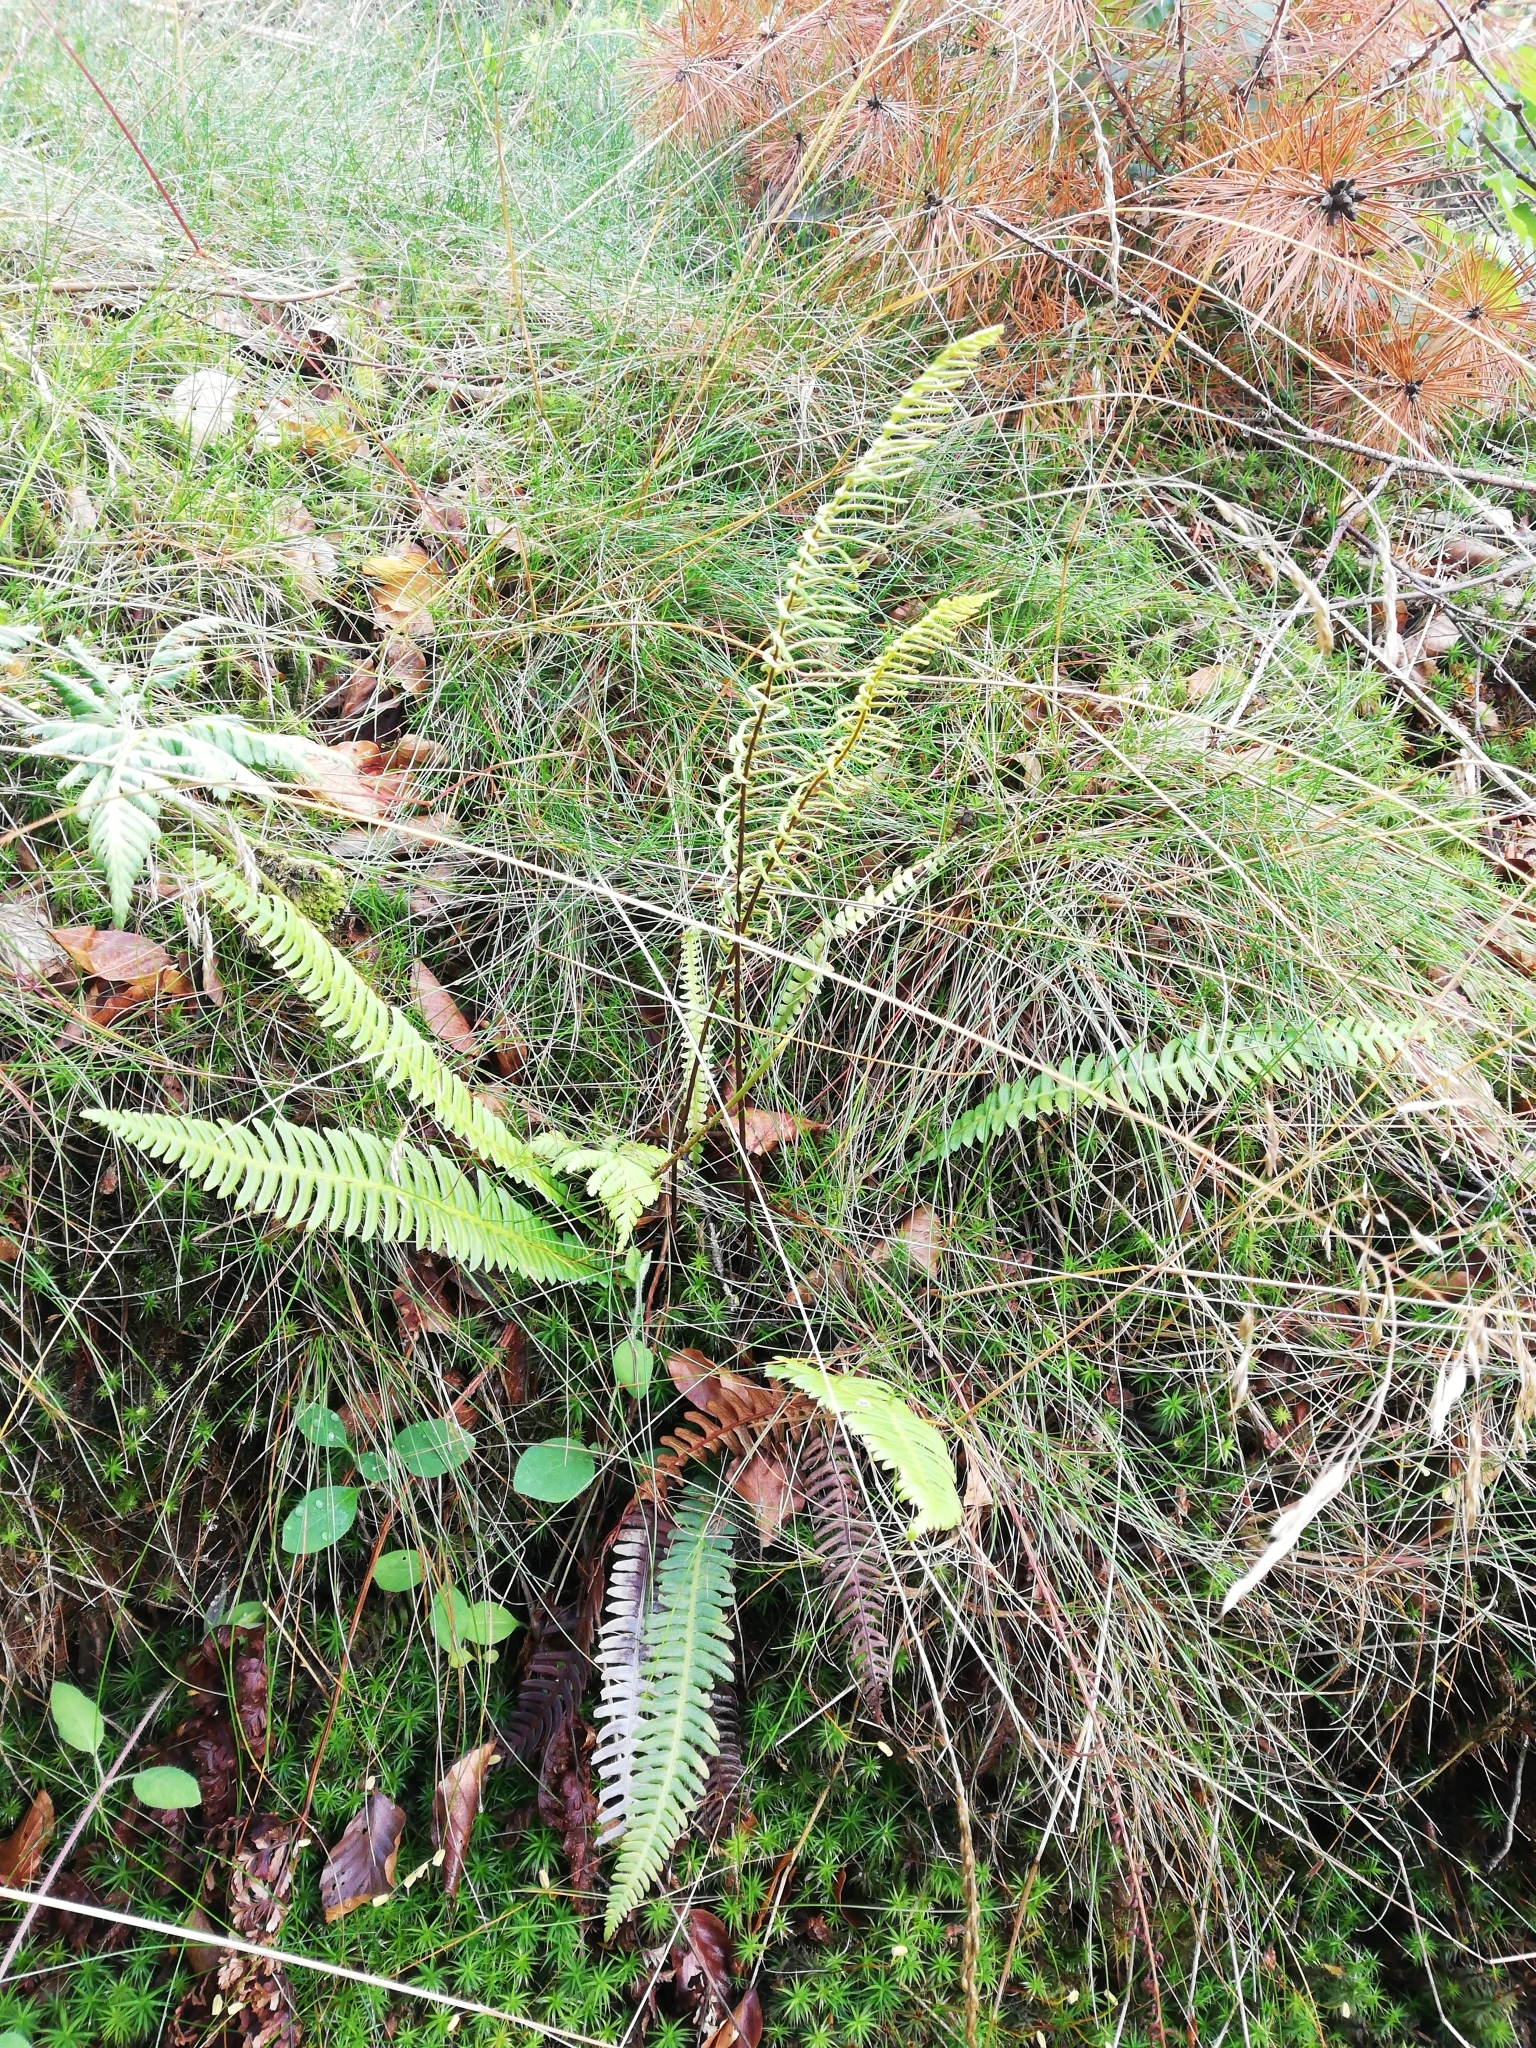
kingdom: Plantae
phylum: Tracheophyta
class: Polypodiopsida
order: Polypodiales
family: Blechnaceae
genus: Struthiopteris
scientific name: Struthiopteris spicant
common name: Deer fern
